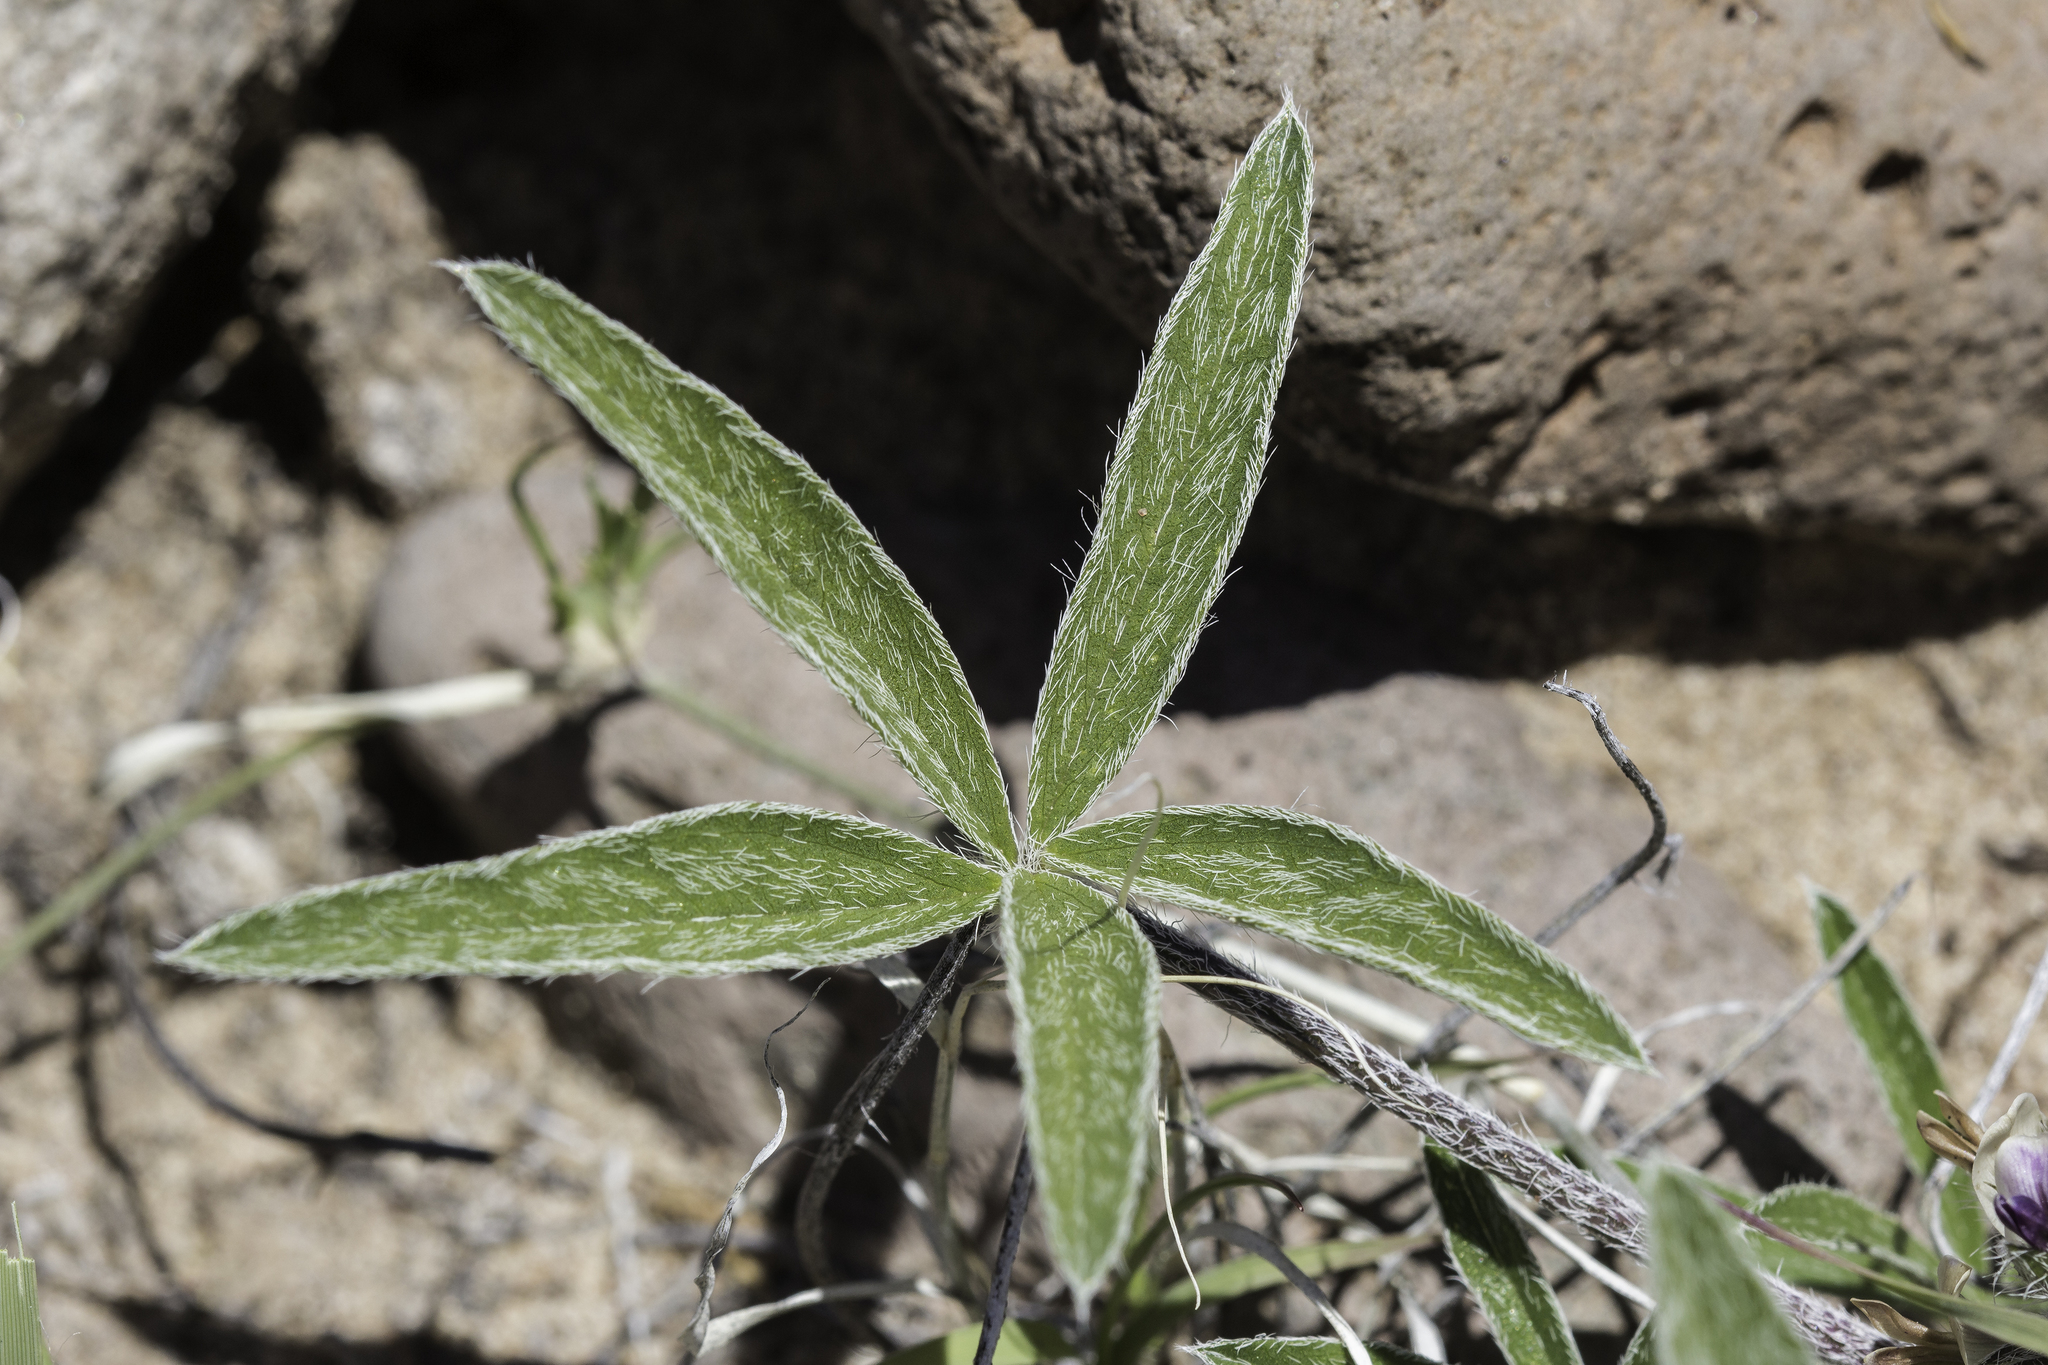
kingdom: Plantae
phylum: Tracheophyta
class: Magnoliopsida
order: Fabales
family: Fabaceae
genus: Pediomelum
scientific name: Pediomelum hypogaeum
